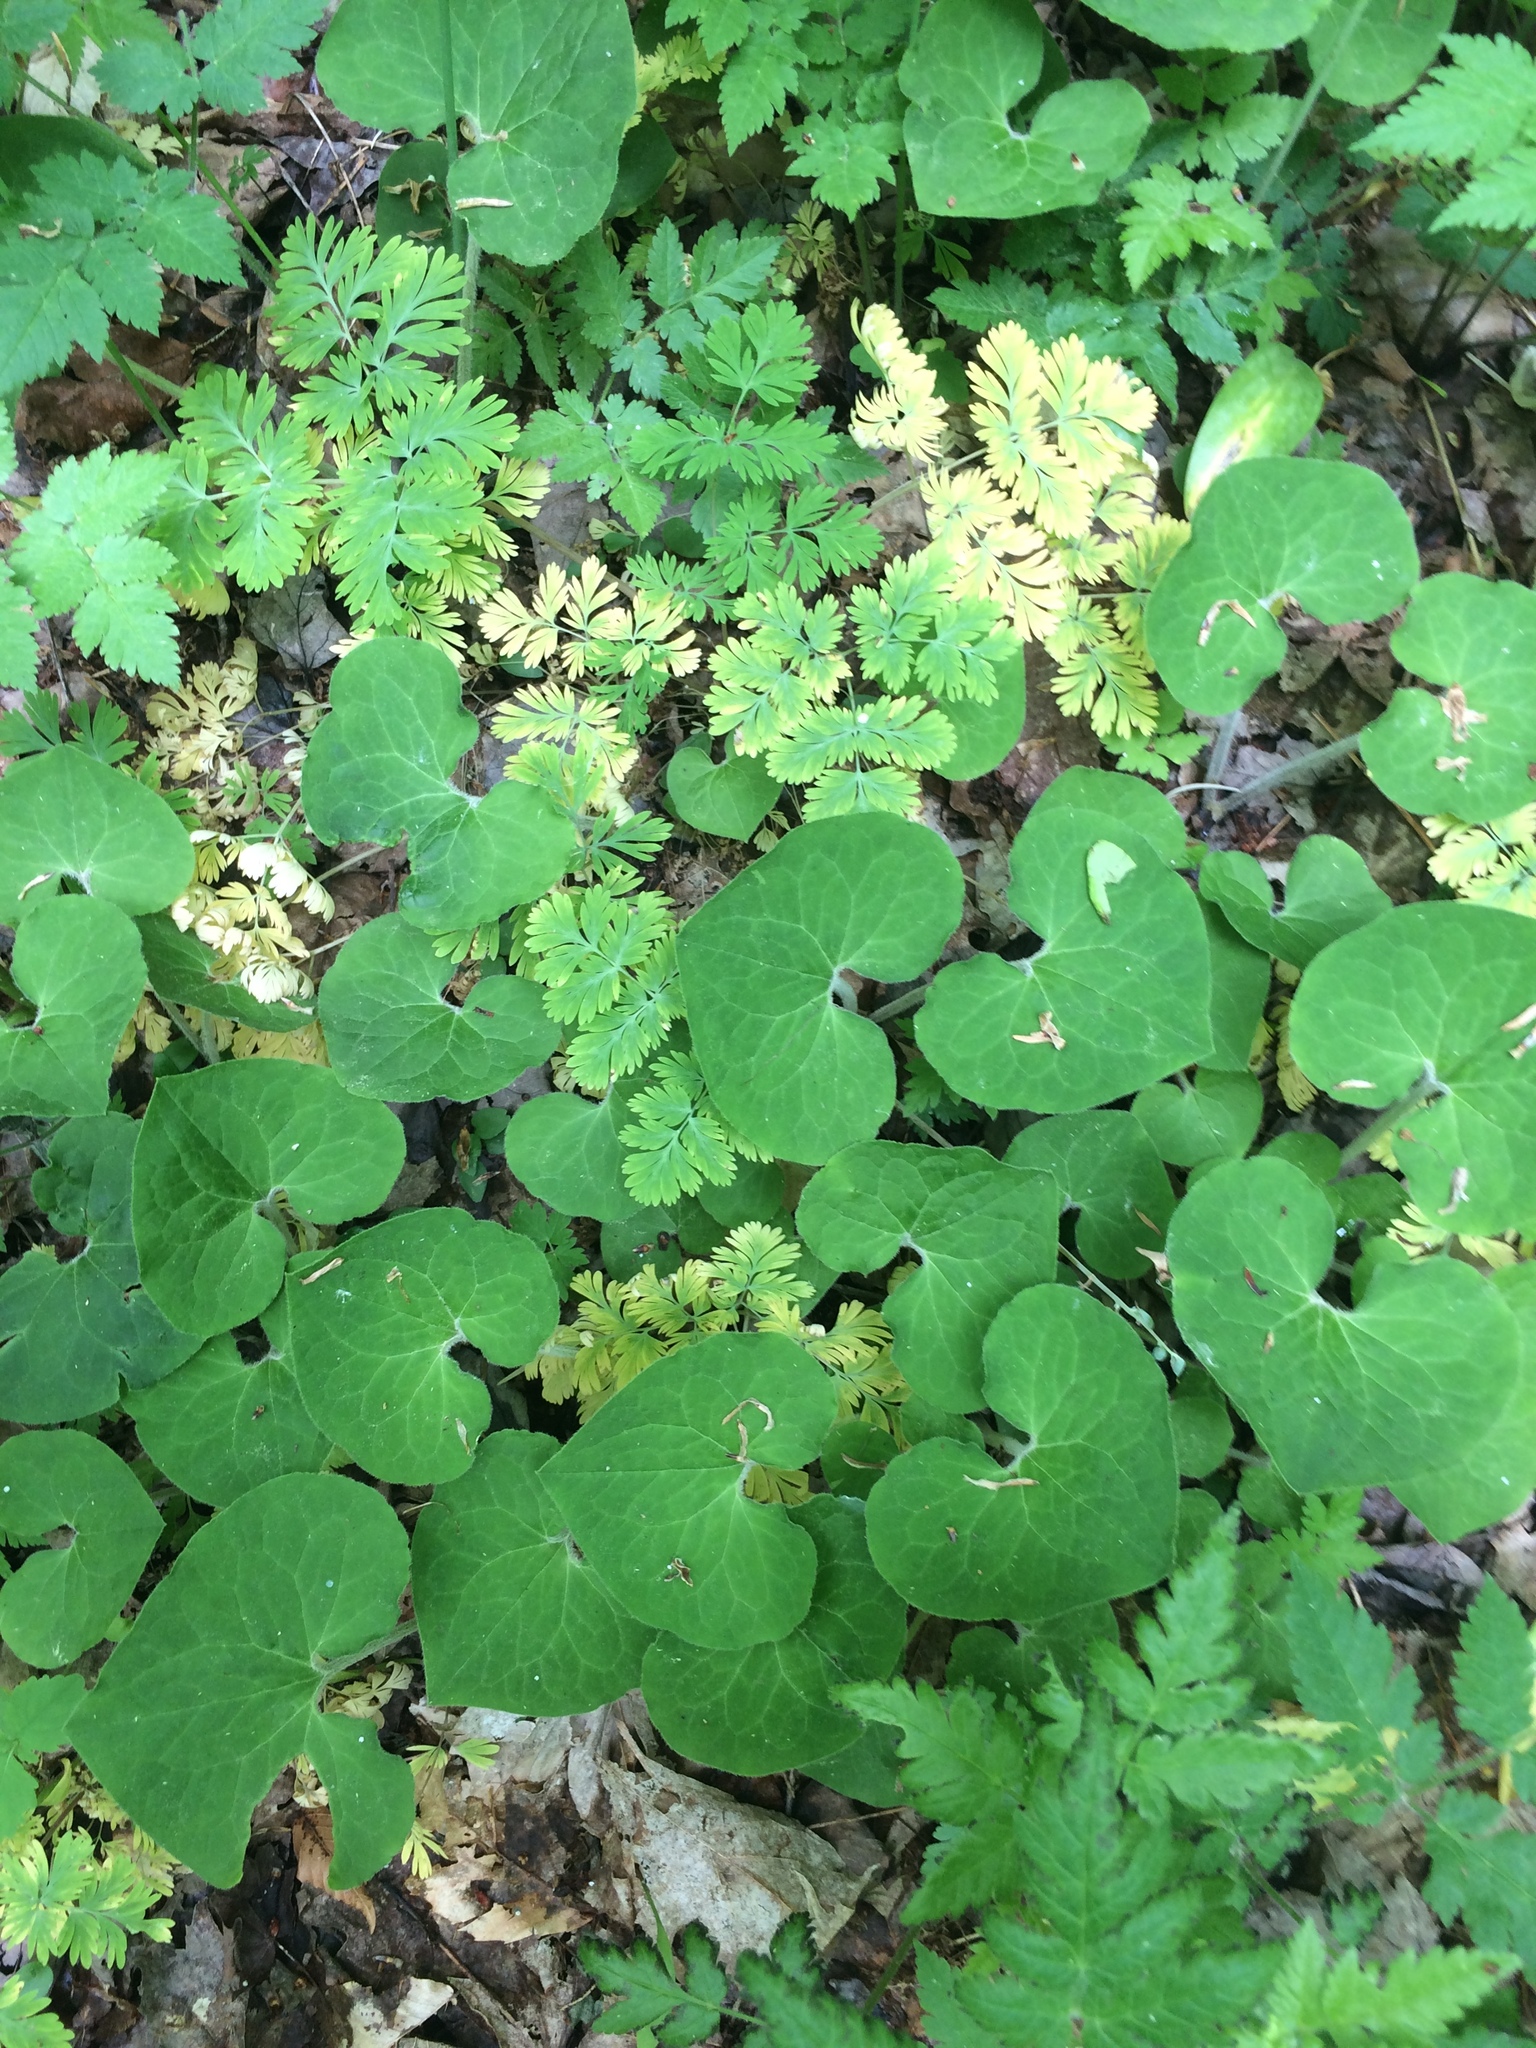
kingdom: Plantae
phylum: Tracheophyta
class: Magnoliopsida
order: Piperales
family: Aristolochiaceae
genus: Asarum
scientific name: Asarum canadense
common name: Wild ginger
